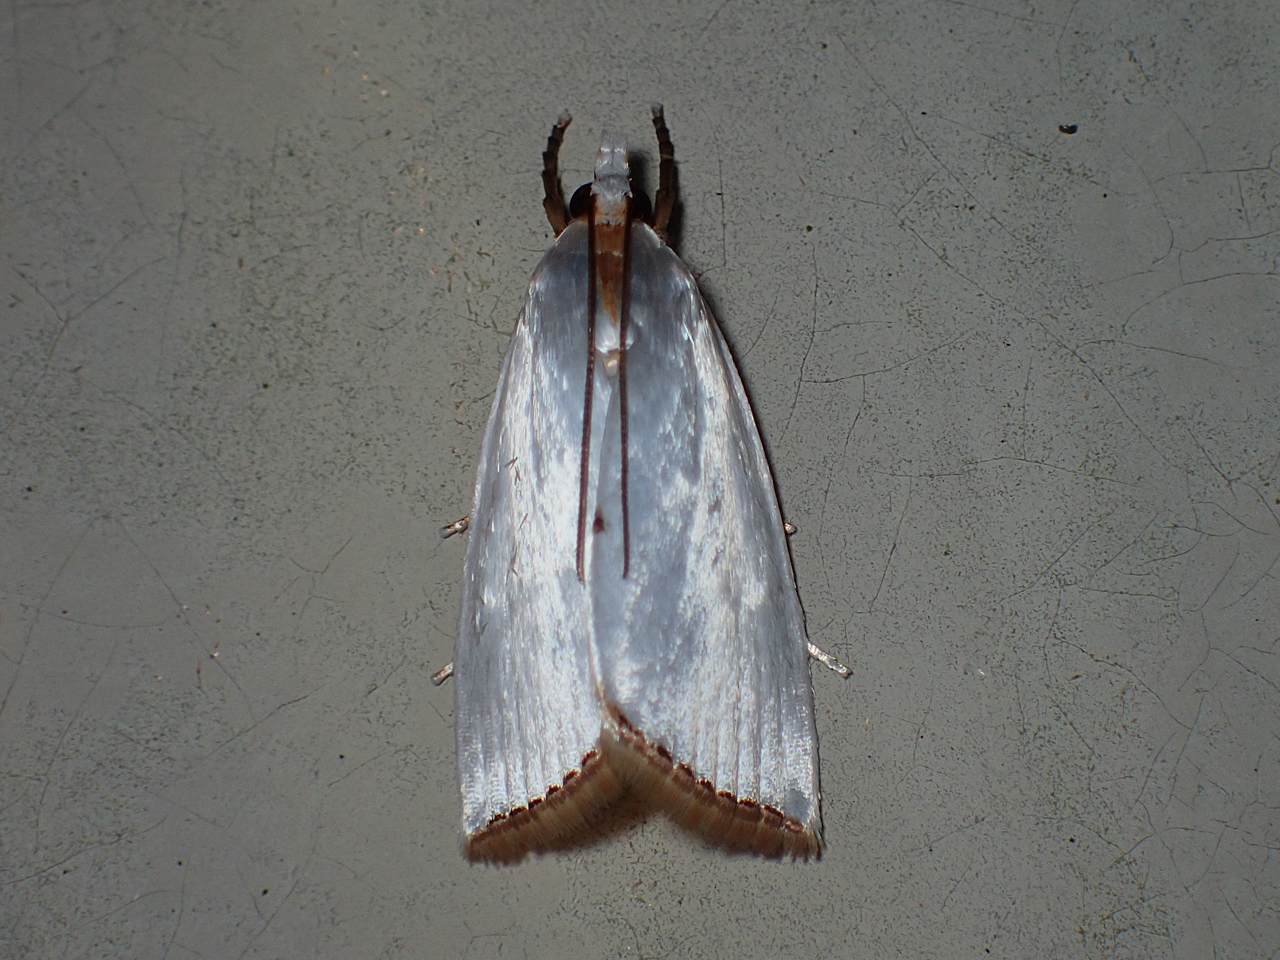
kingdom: Animalia
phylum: Arthropoda
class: Insecta
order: Lepidoptera
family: Crambidae
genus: Argyria
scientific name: Argyria nivalis
